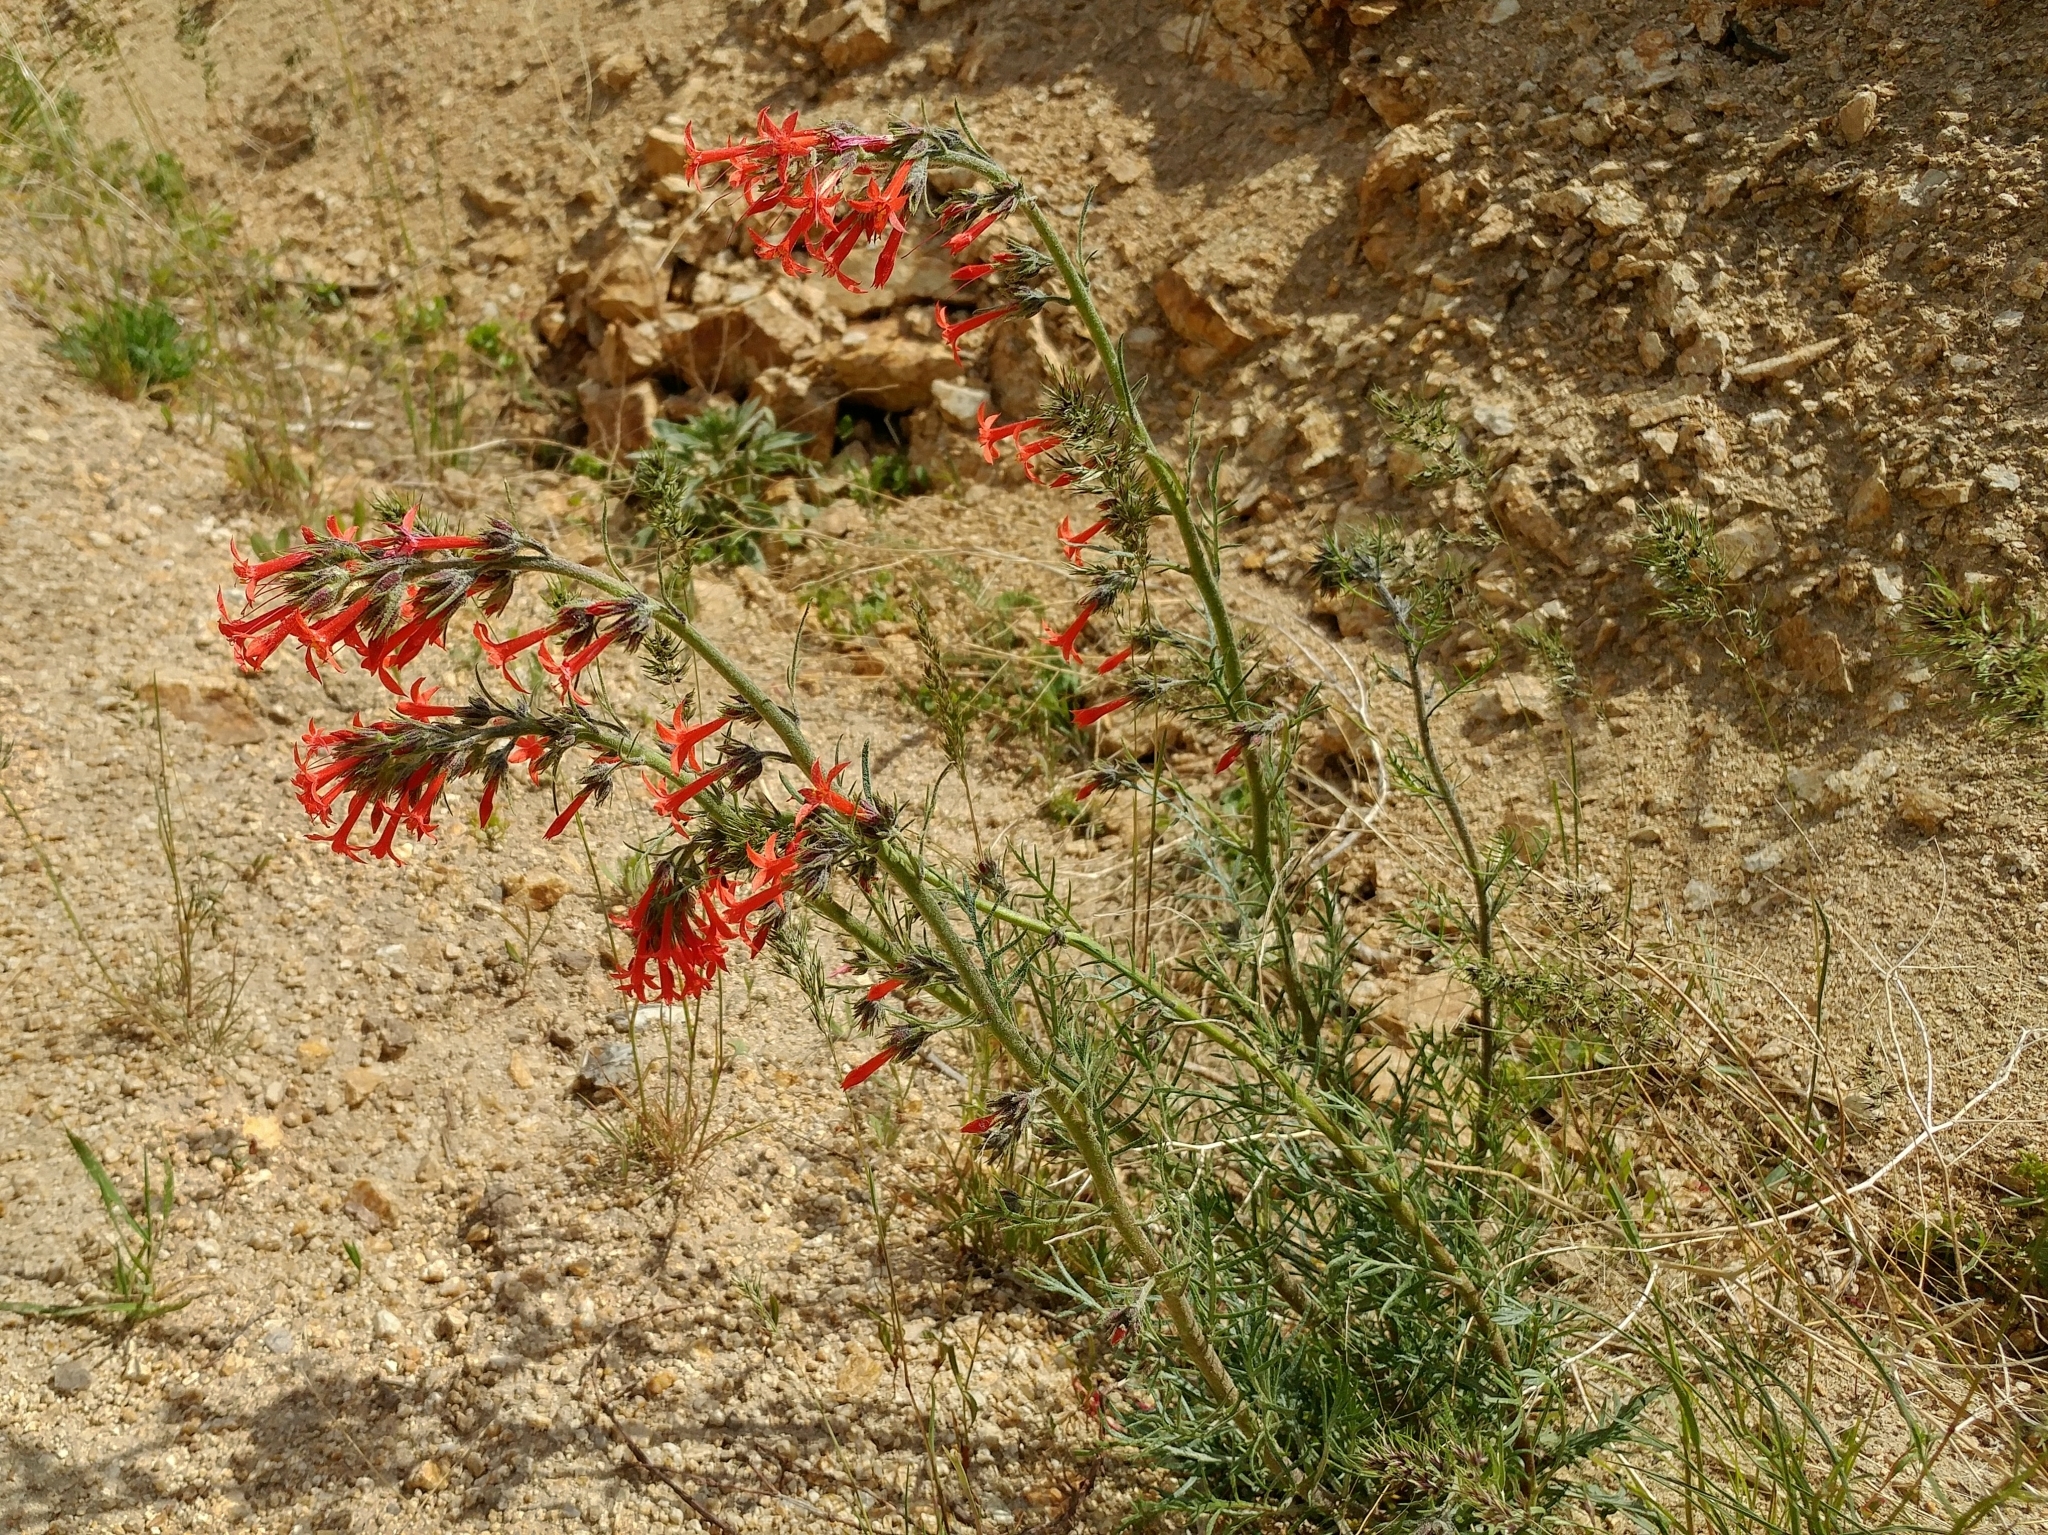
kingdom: Plantae
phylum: Tracheophyta
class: Magnoliopsida
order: Ericales
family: Polemoniaceae
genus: Ipomopsis
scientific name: Ipomopsis aggregata
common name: Scarlet gilia
